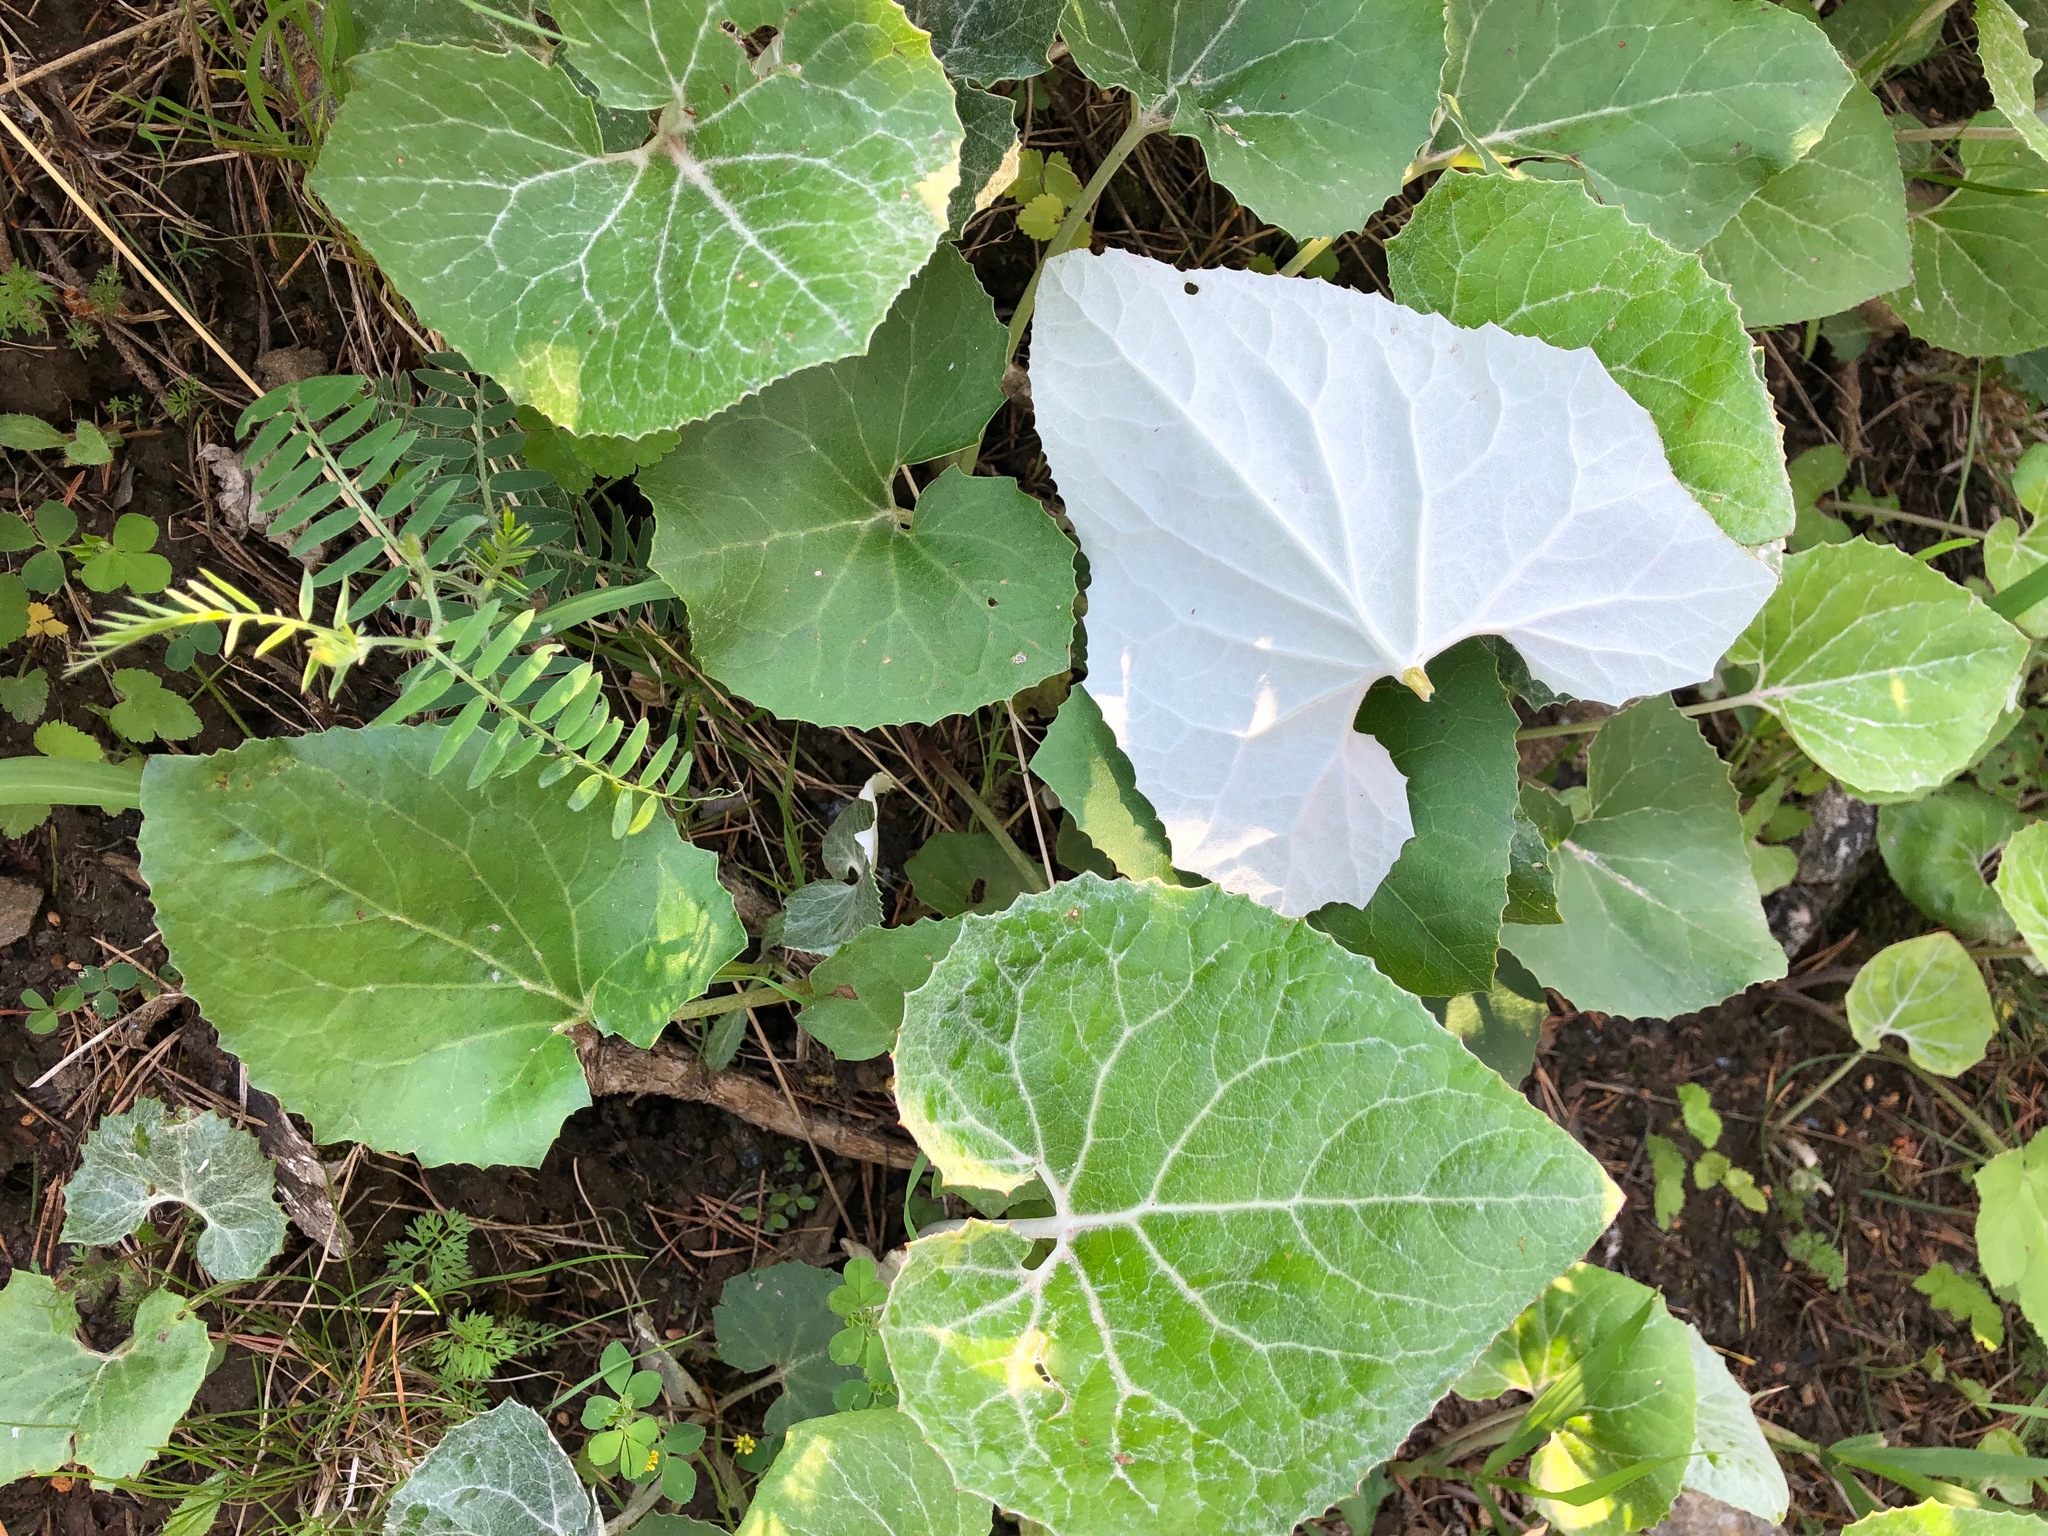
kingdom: Plantae
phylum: Tracheophyta
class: Magnoliopsida
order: Asterales
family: Asteraceae
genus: Petasites
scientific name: Petasites paradoxus
